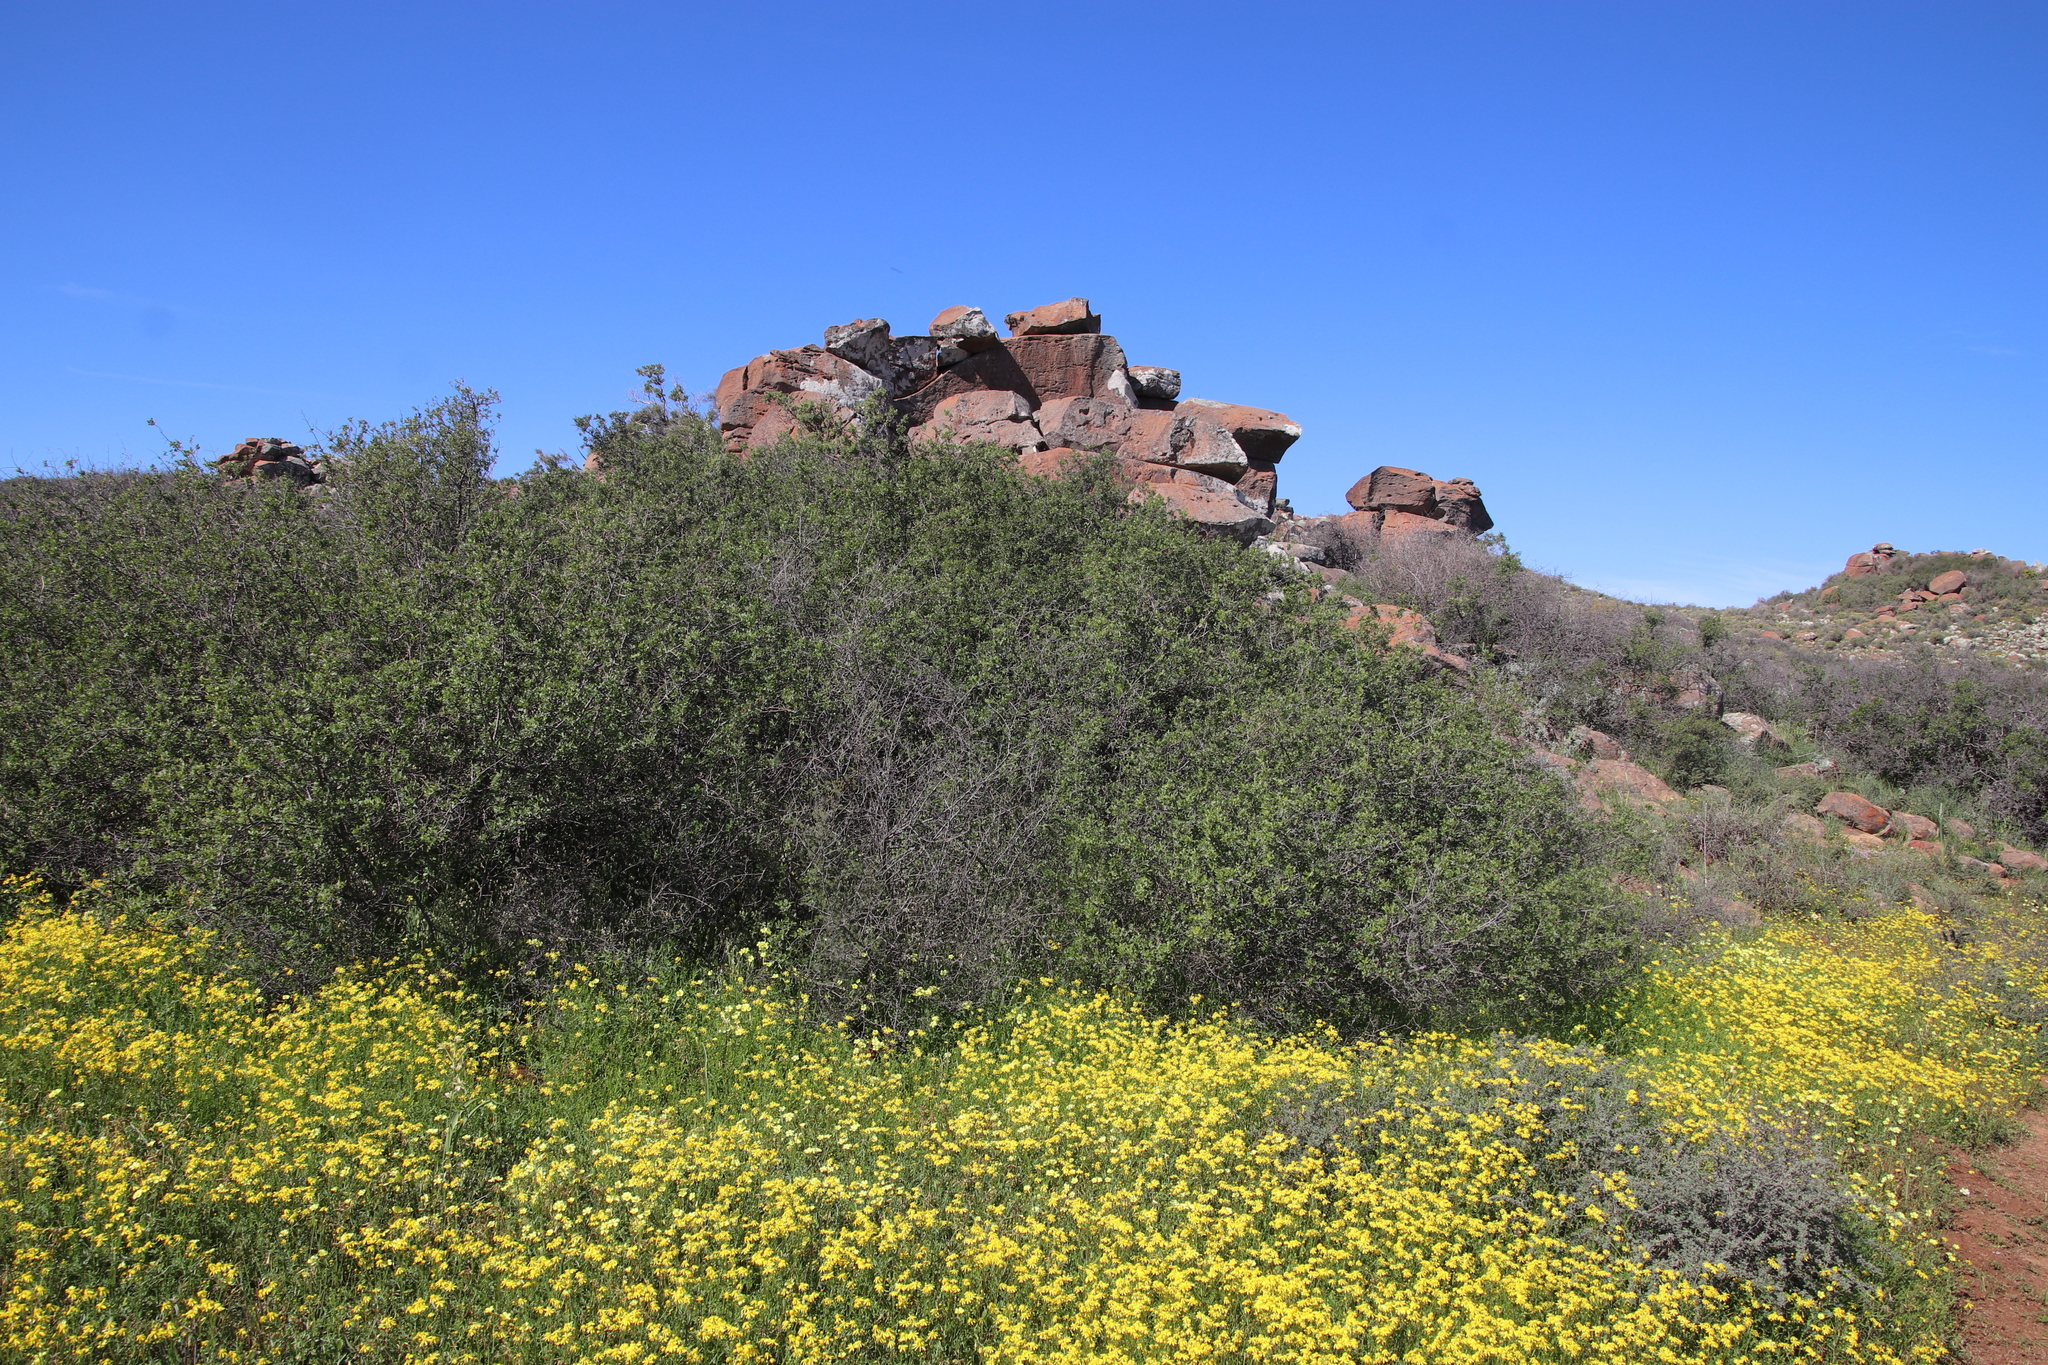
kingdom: Plantae
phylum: Tracheophyta
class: Magnoliopsida
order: Sapindales
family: Anacardiaceae
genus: Searsia
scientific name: Searsia undulata
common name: Namaqua kunibush
